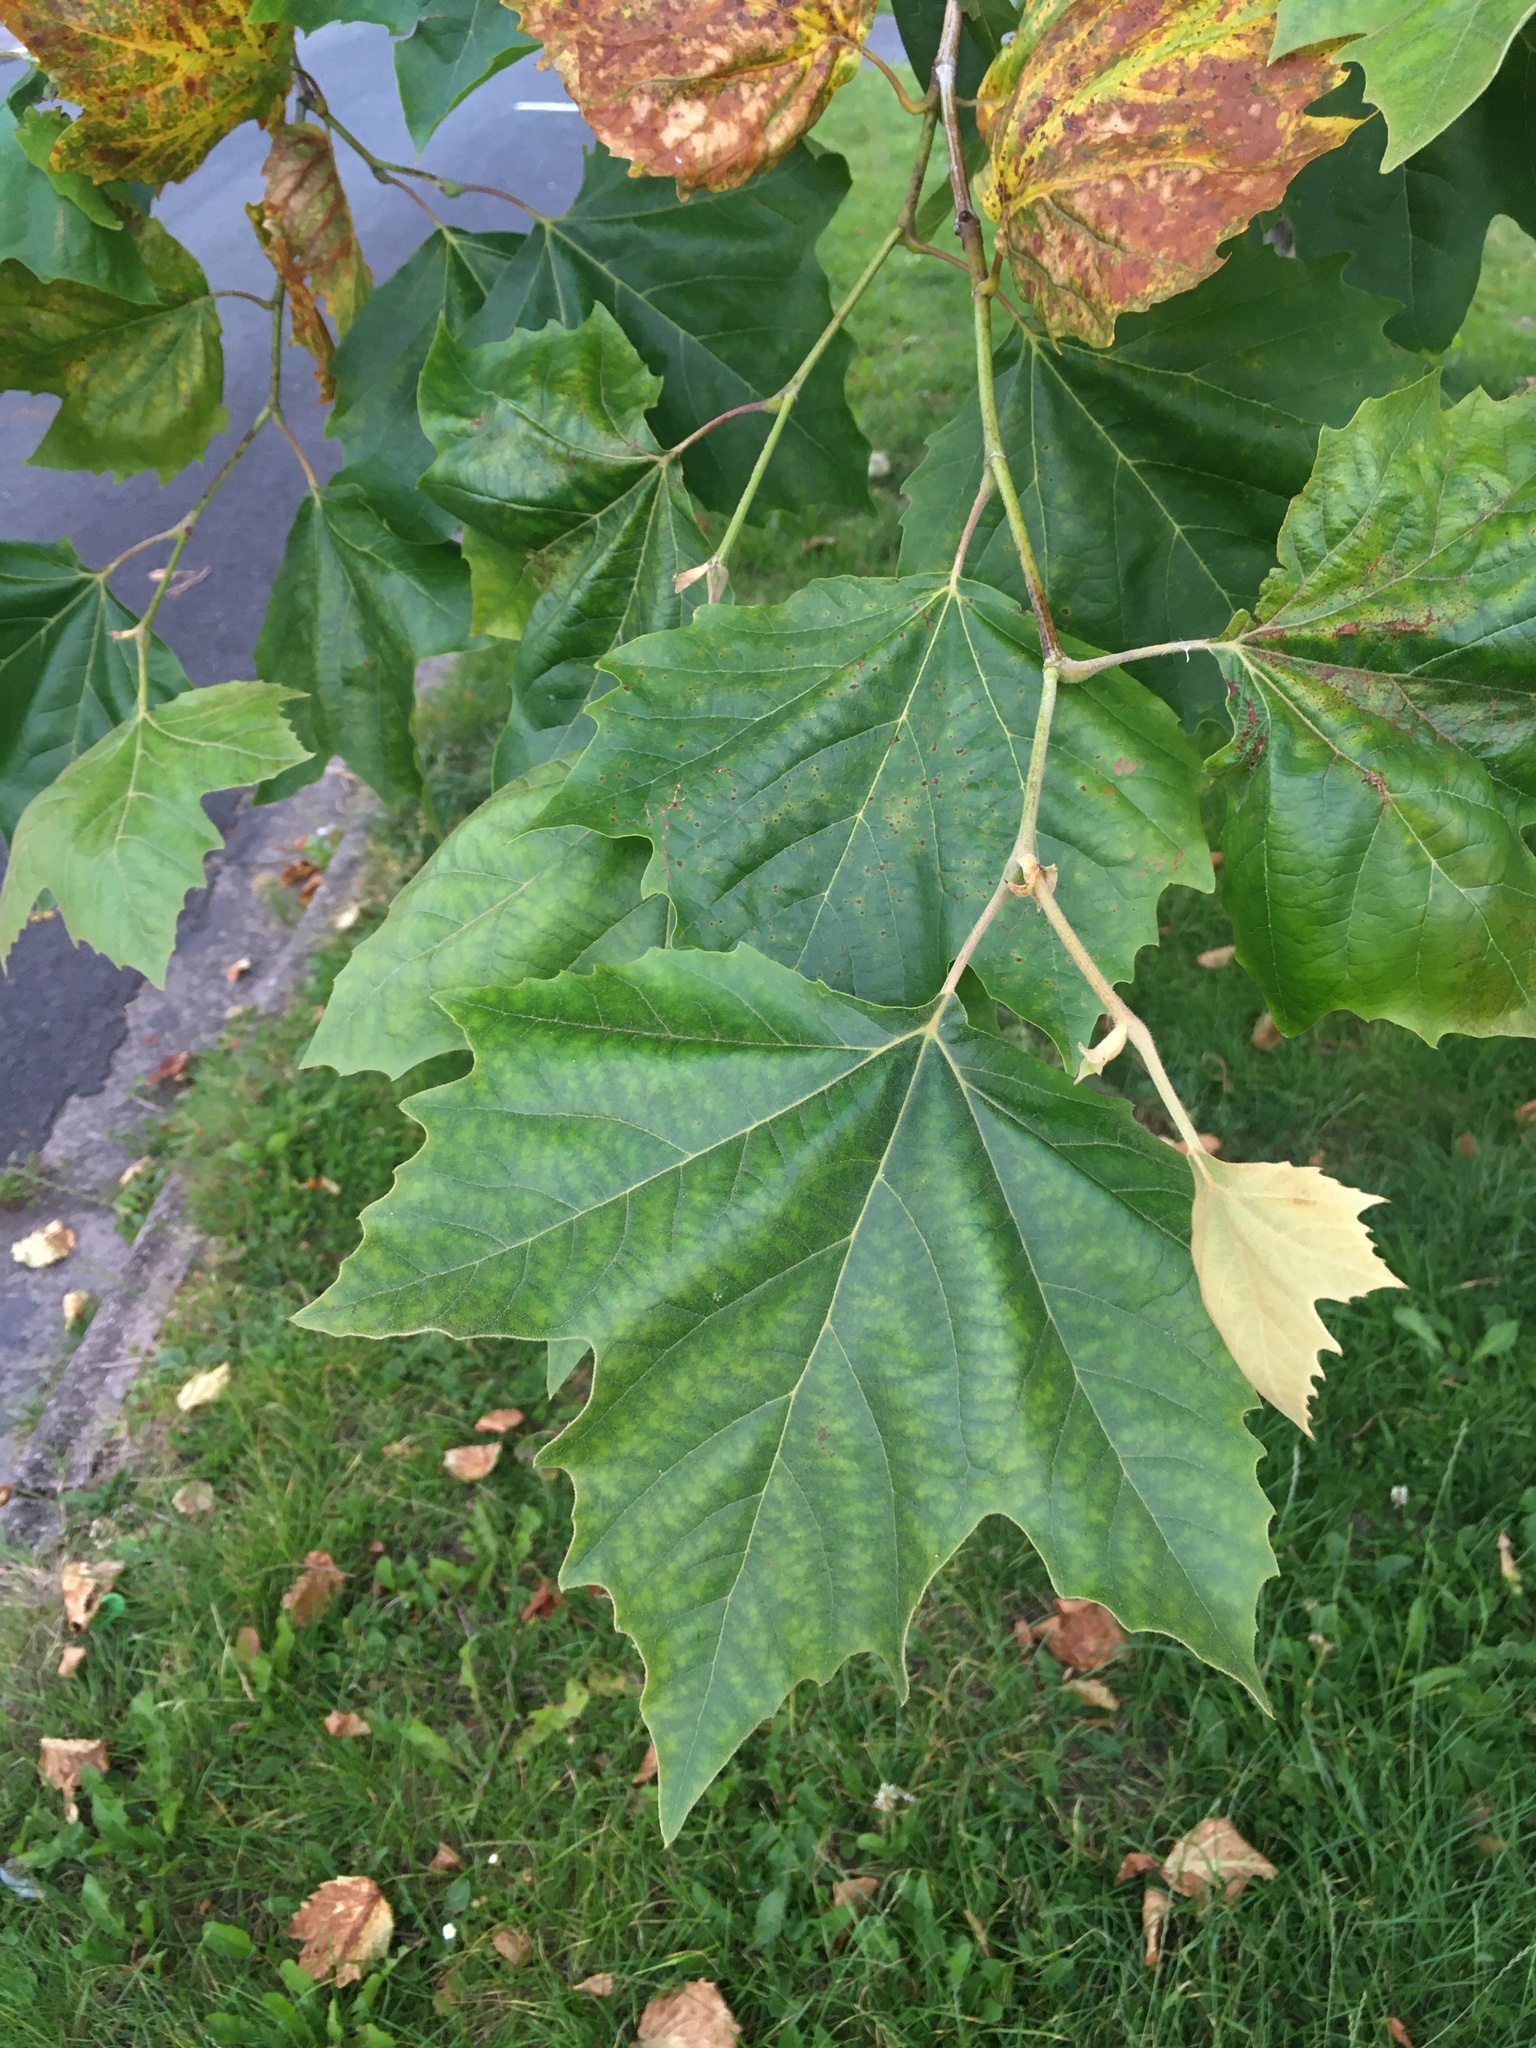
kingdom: Plantae
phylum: Tracheophyta
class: Magnoliopsida
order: Proteales
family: Platanaceae
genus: Platanus
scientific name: Platanus hispanica
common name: London plane
